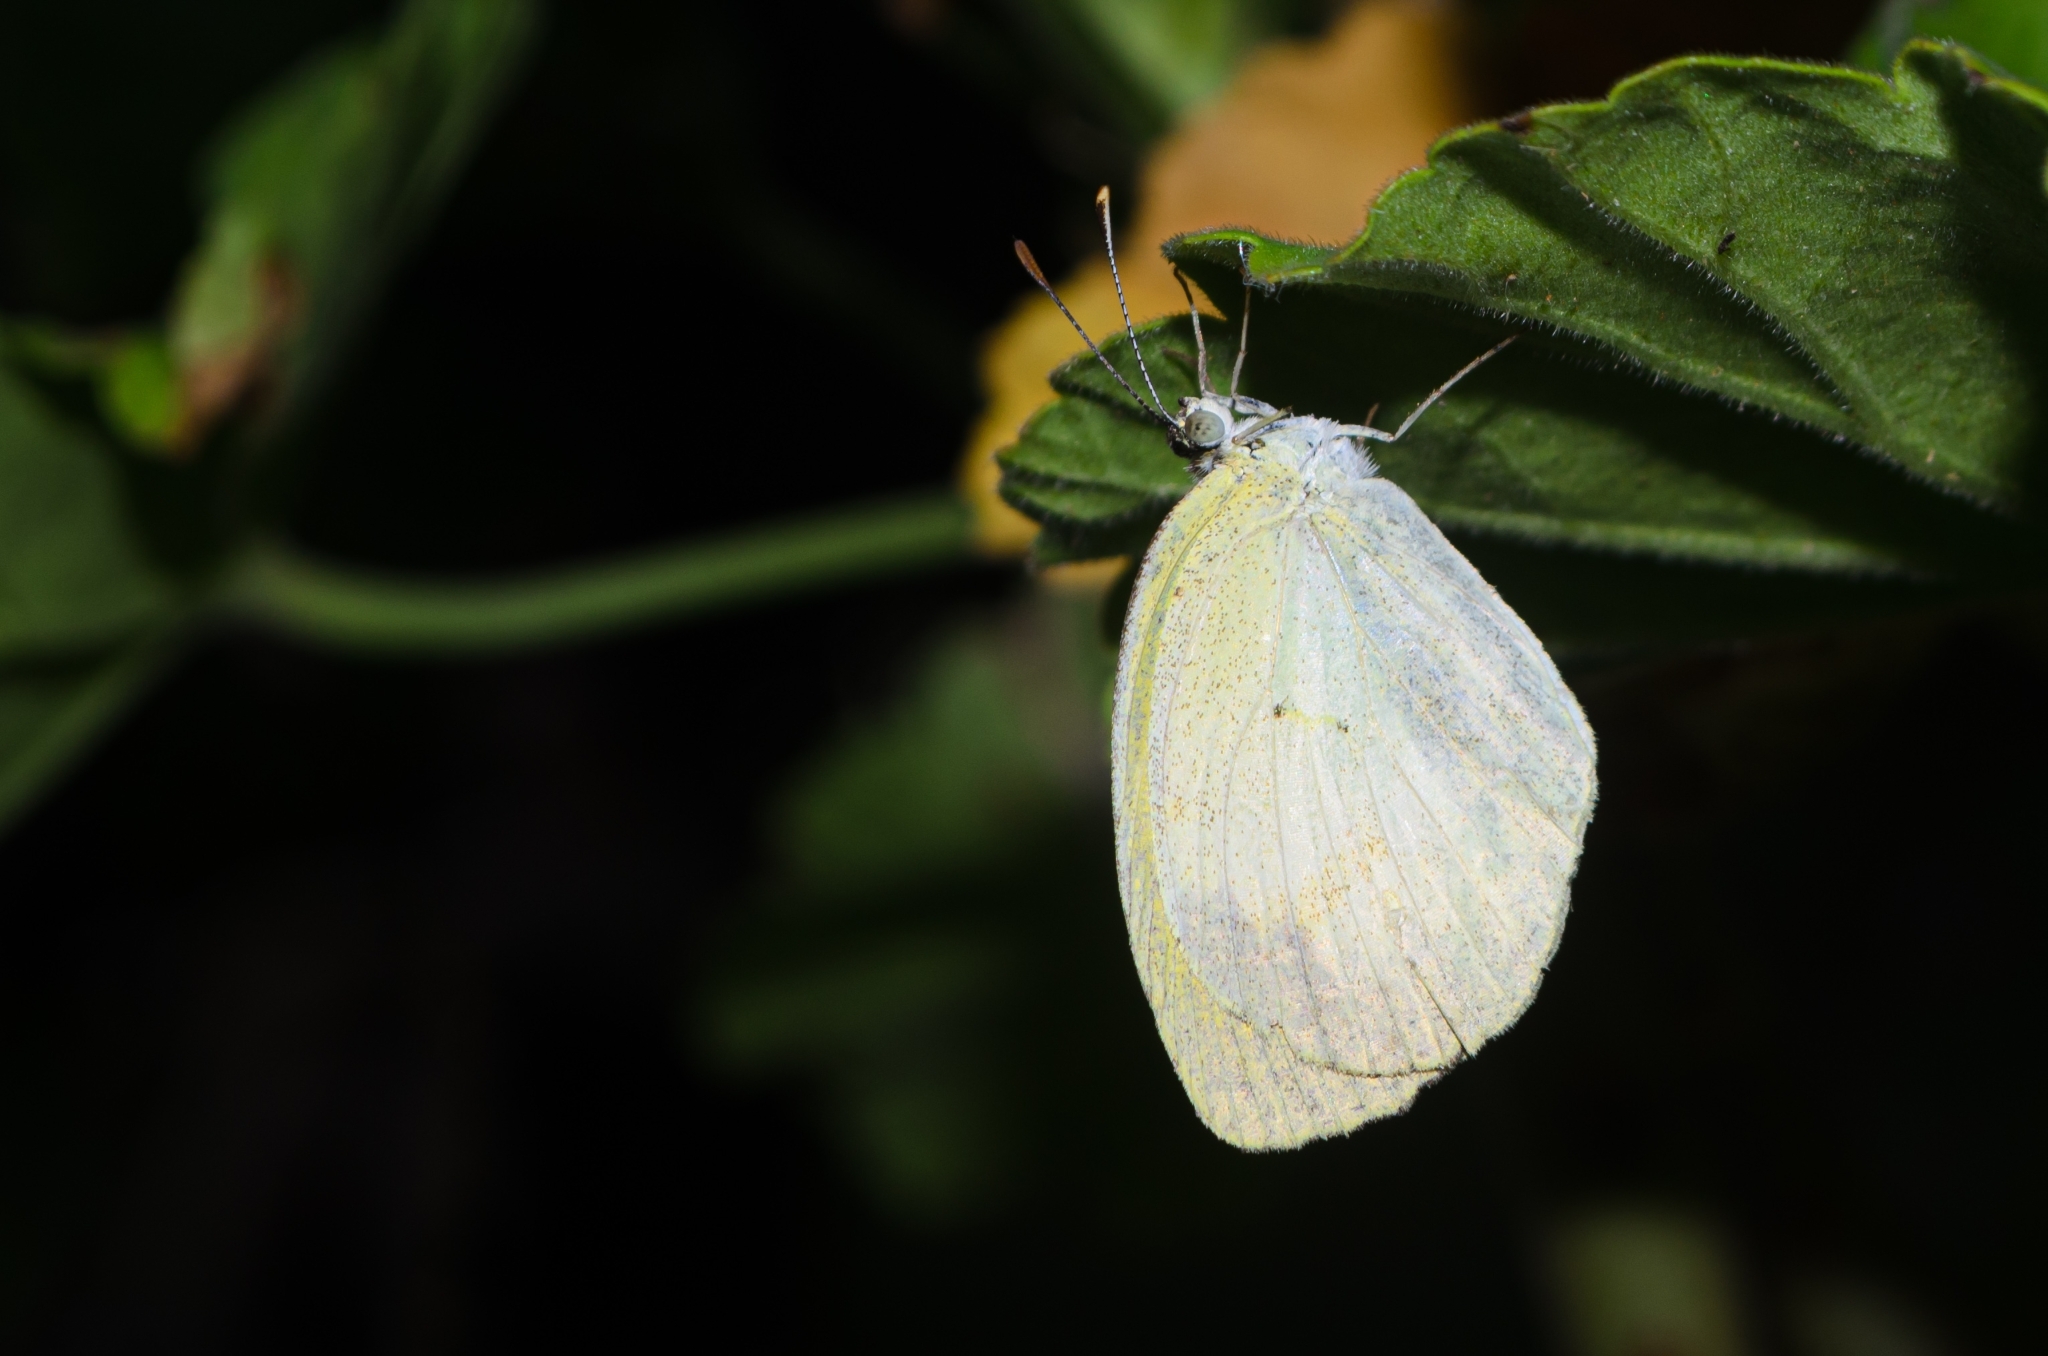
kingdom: Animalia
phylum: Arthropoda
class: Insecta
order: Lepidoptera
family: Pieridae
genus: Eurema
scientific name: Eurema elathea
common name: Banded yellow
